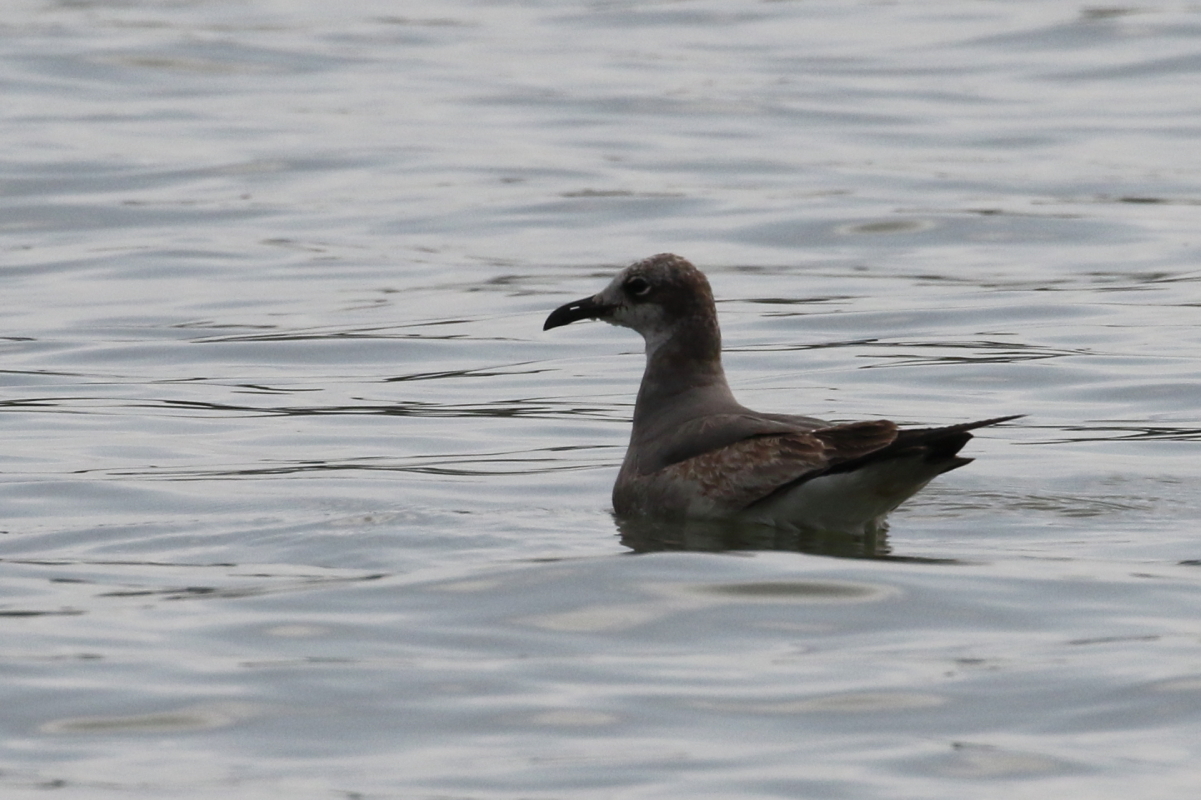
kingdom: Animalia
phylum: Chordata
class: Aves
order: Charadriiformes
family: Laridae
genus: Leucophaeus
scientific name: Leucophaeus atricilla
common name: Laughing gull
